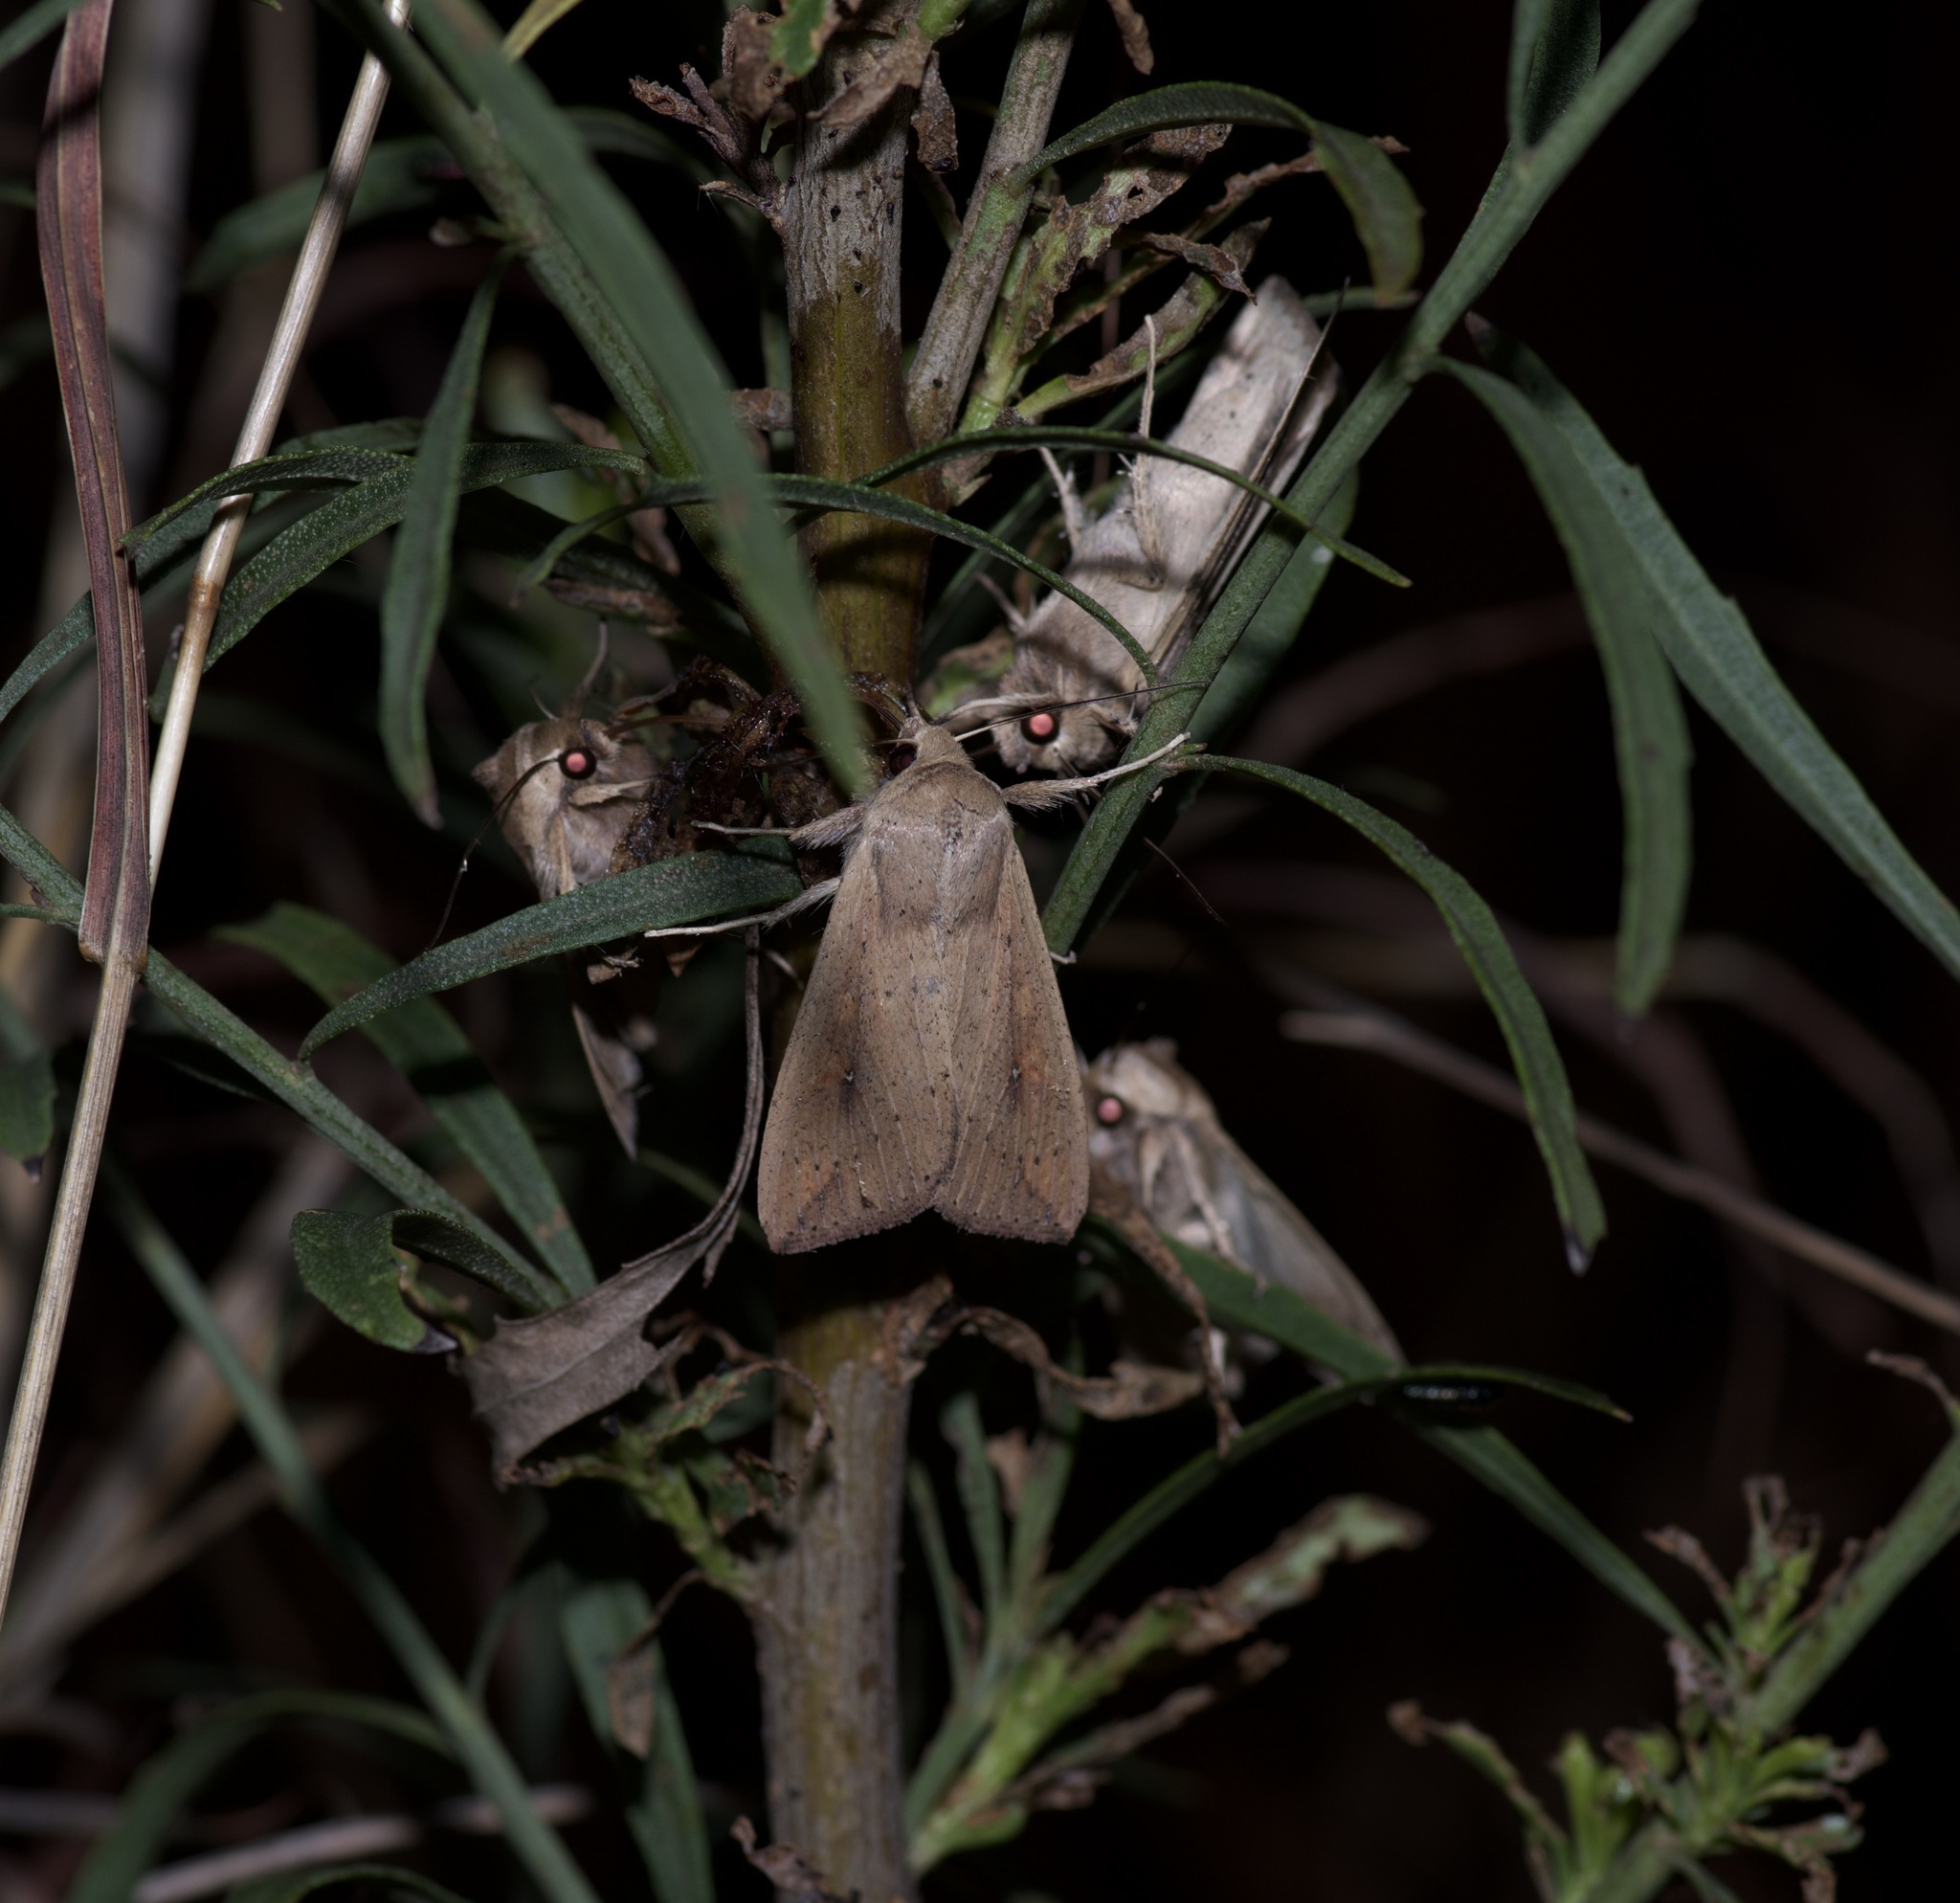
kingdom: Animalia
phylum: Arthropoda
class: Insecta
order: Lepidoptera
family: Noctuidae
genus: Mythimna
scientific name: Mythimna unipuncta
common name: White-speck
